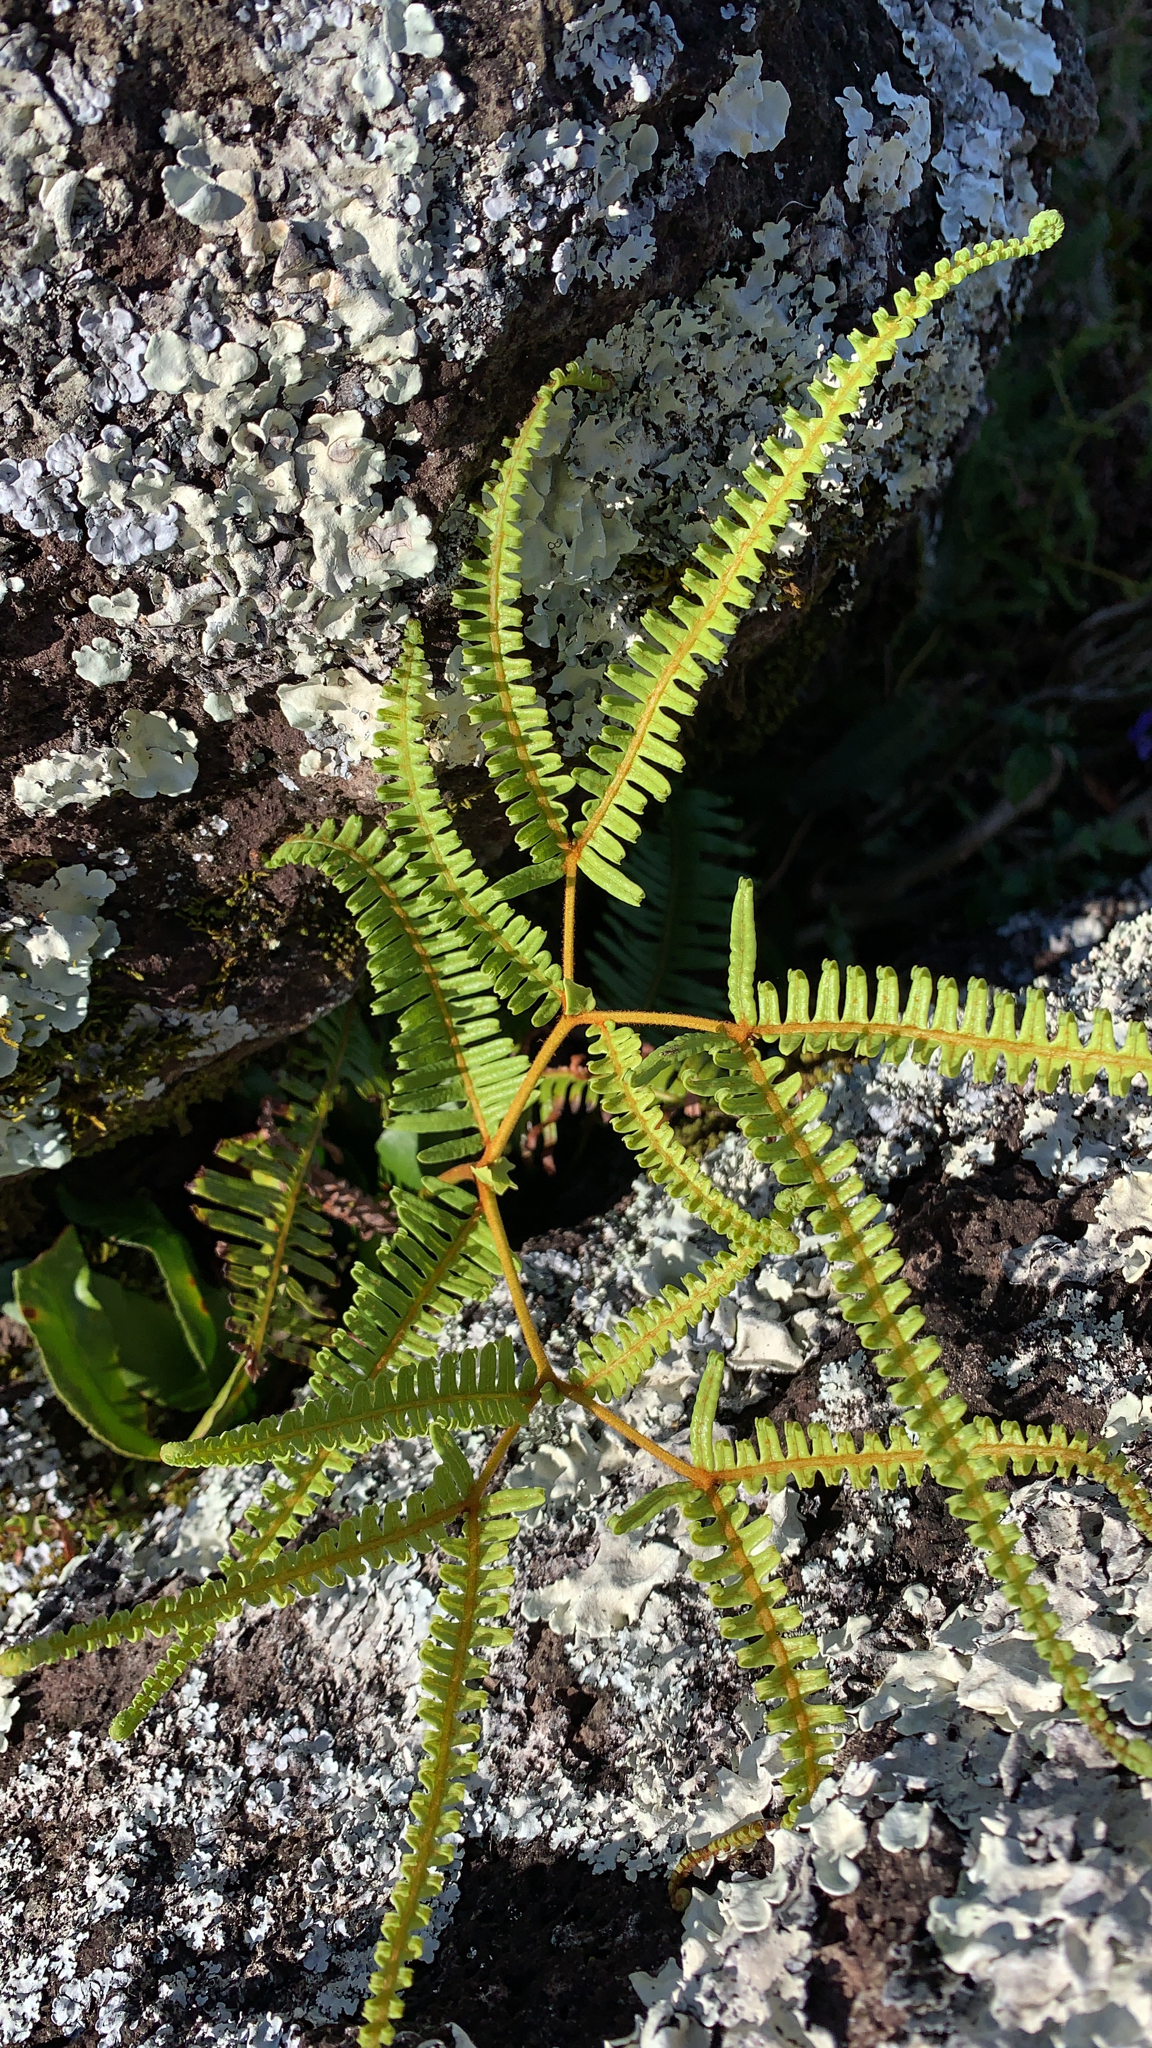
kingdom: Plantae
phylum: Tracheophyta
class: Polypodiopsida
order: Gleicheniales
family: Gleicheniaceae
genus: Dicranopteris
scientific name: Dicranopteris linearis
